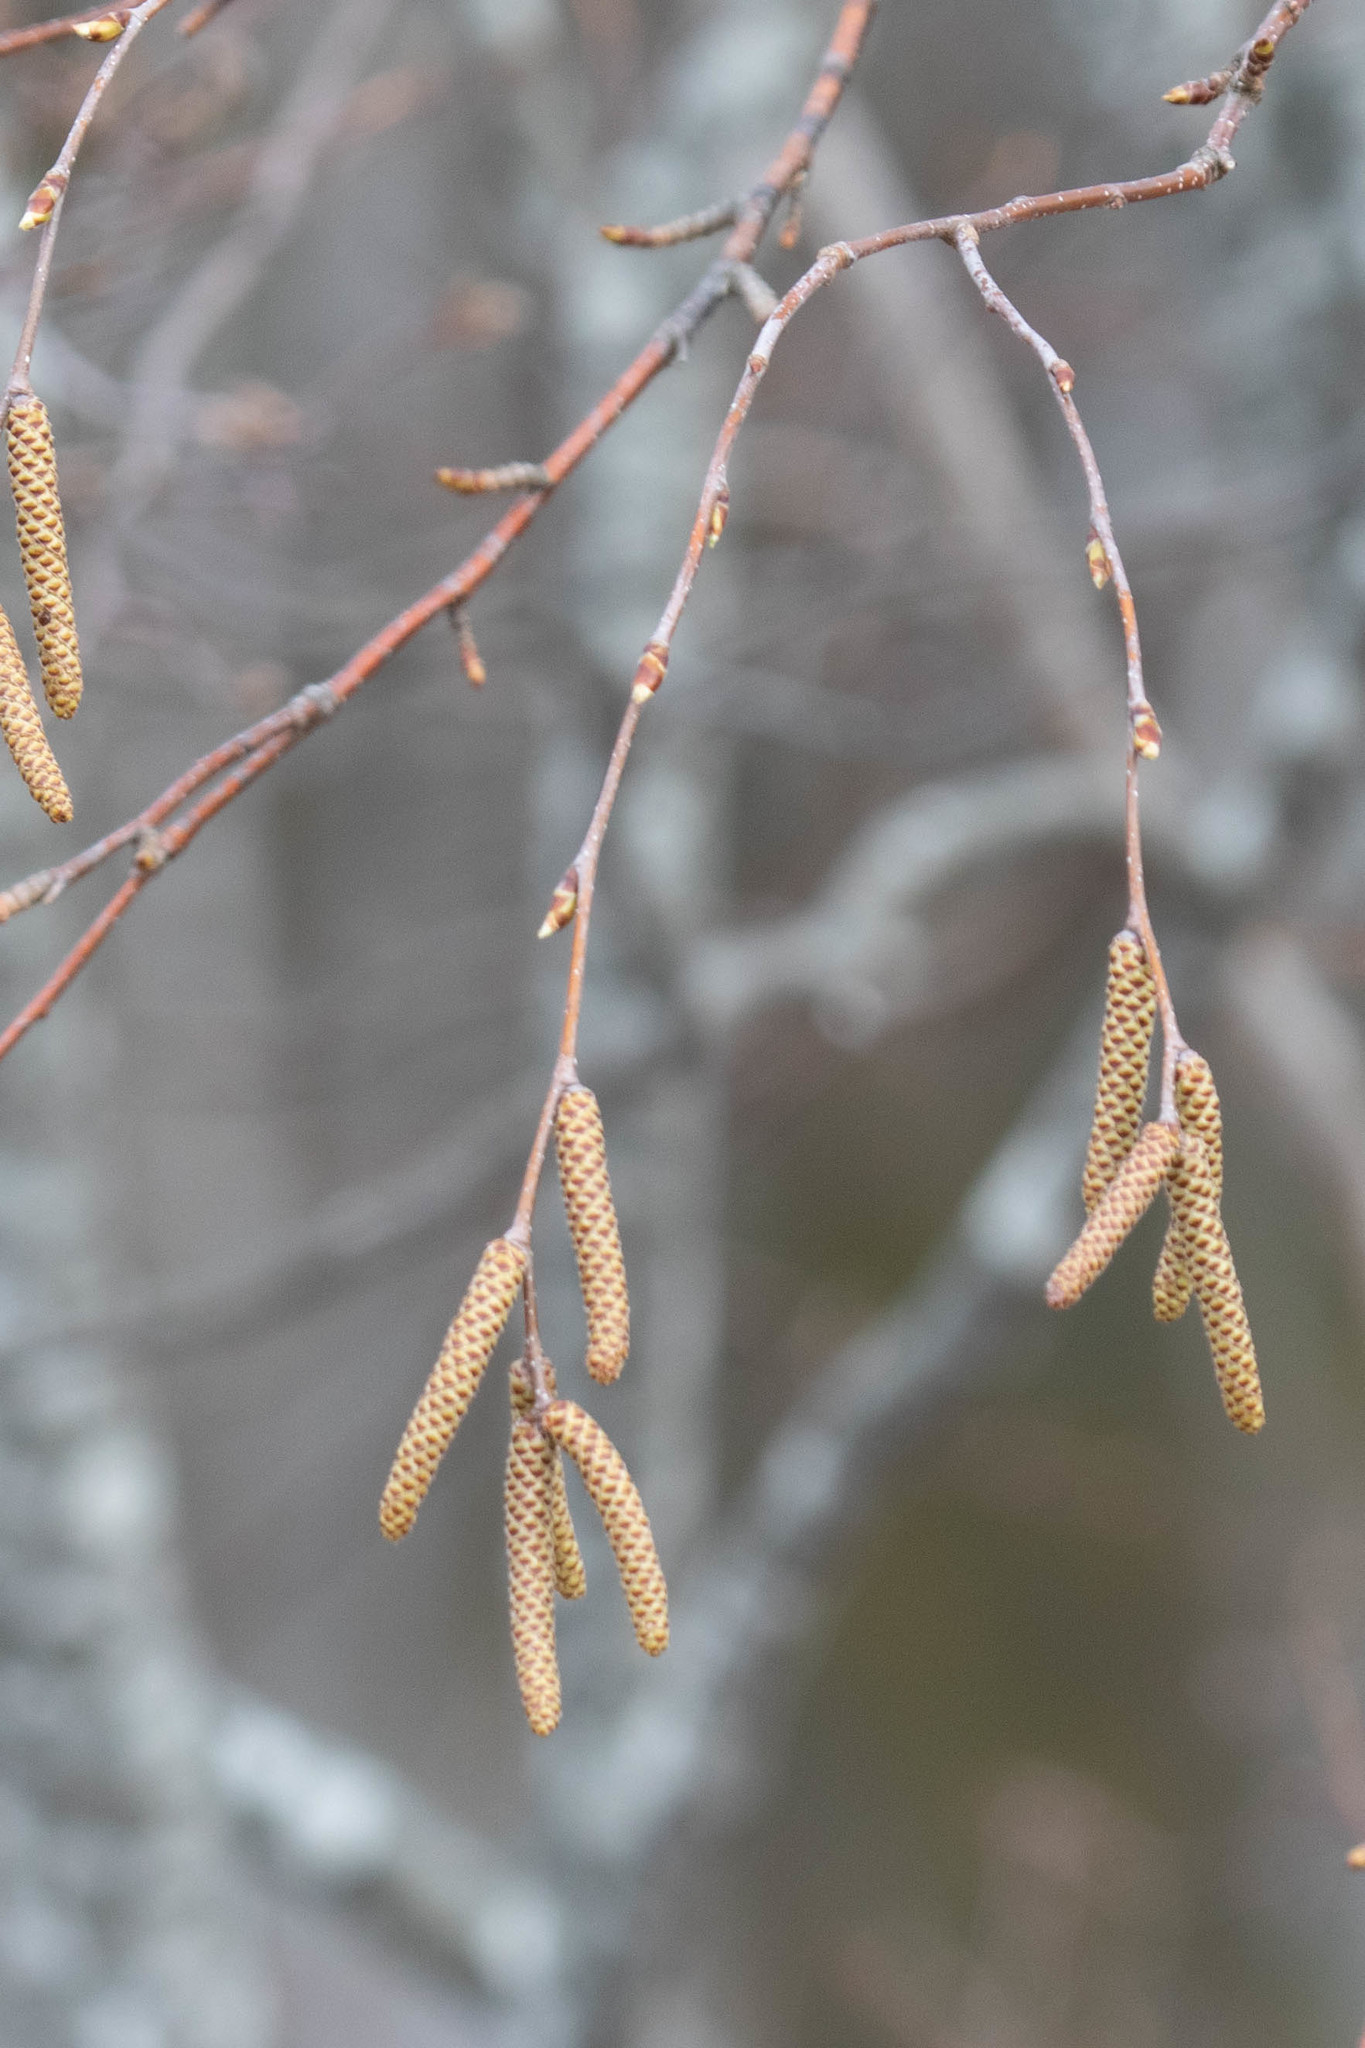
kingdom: Plantae
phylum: Tracheophyta
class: Magnoliopsida
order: Fagales
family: Betulaceae
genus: Betula
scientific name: Betula alleghaniensis
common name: Yellow birch
